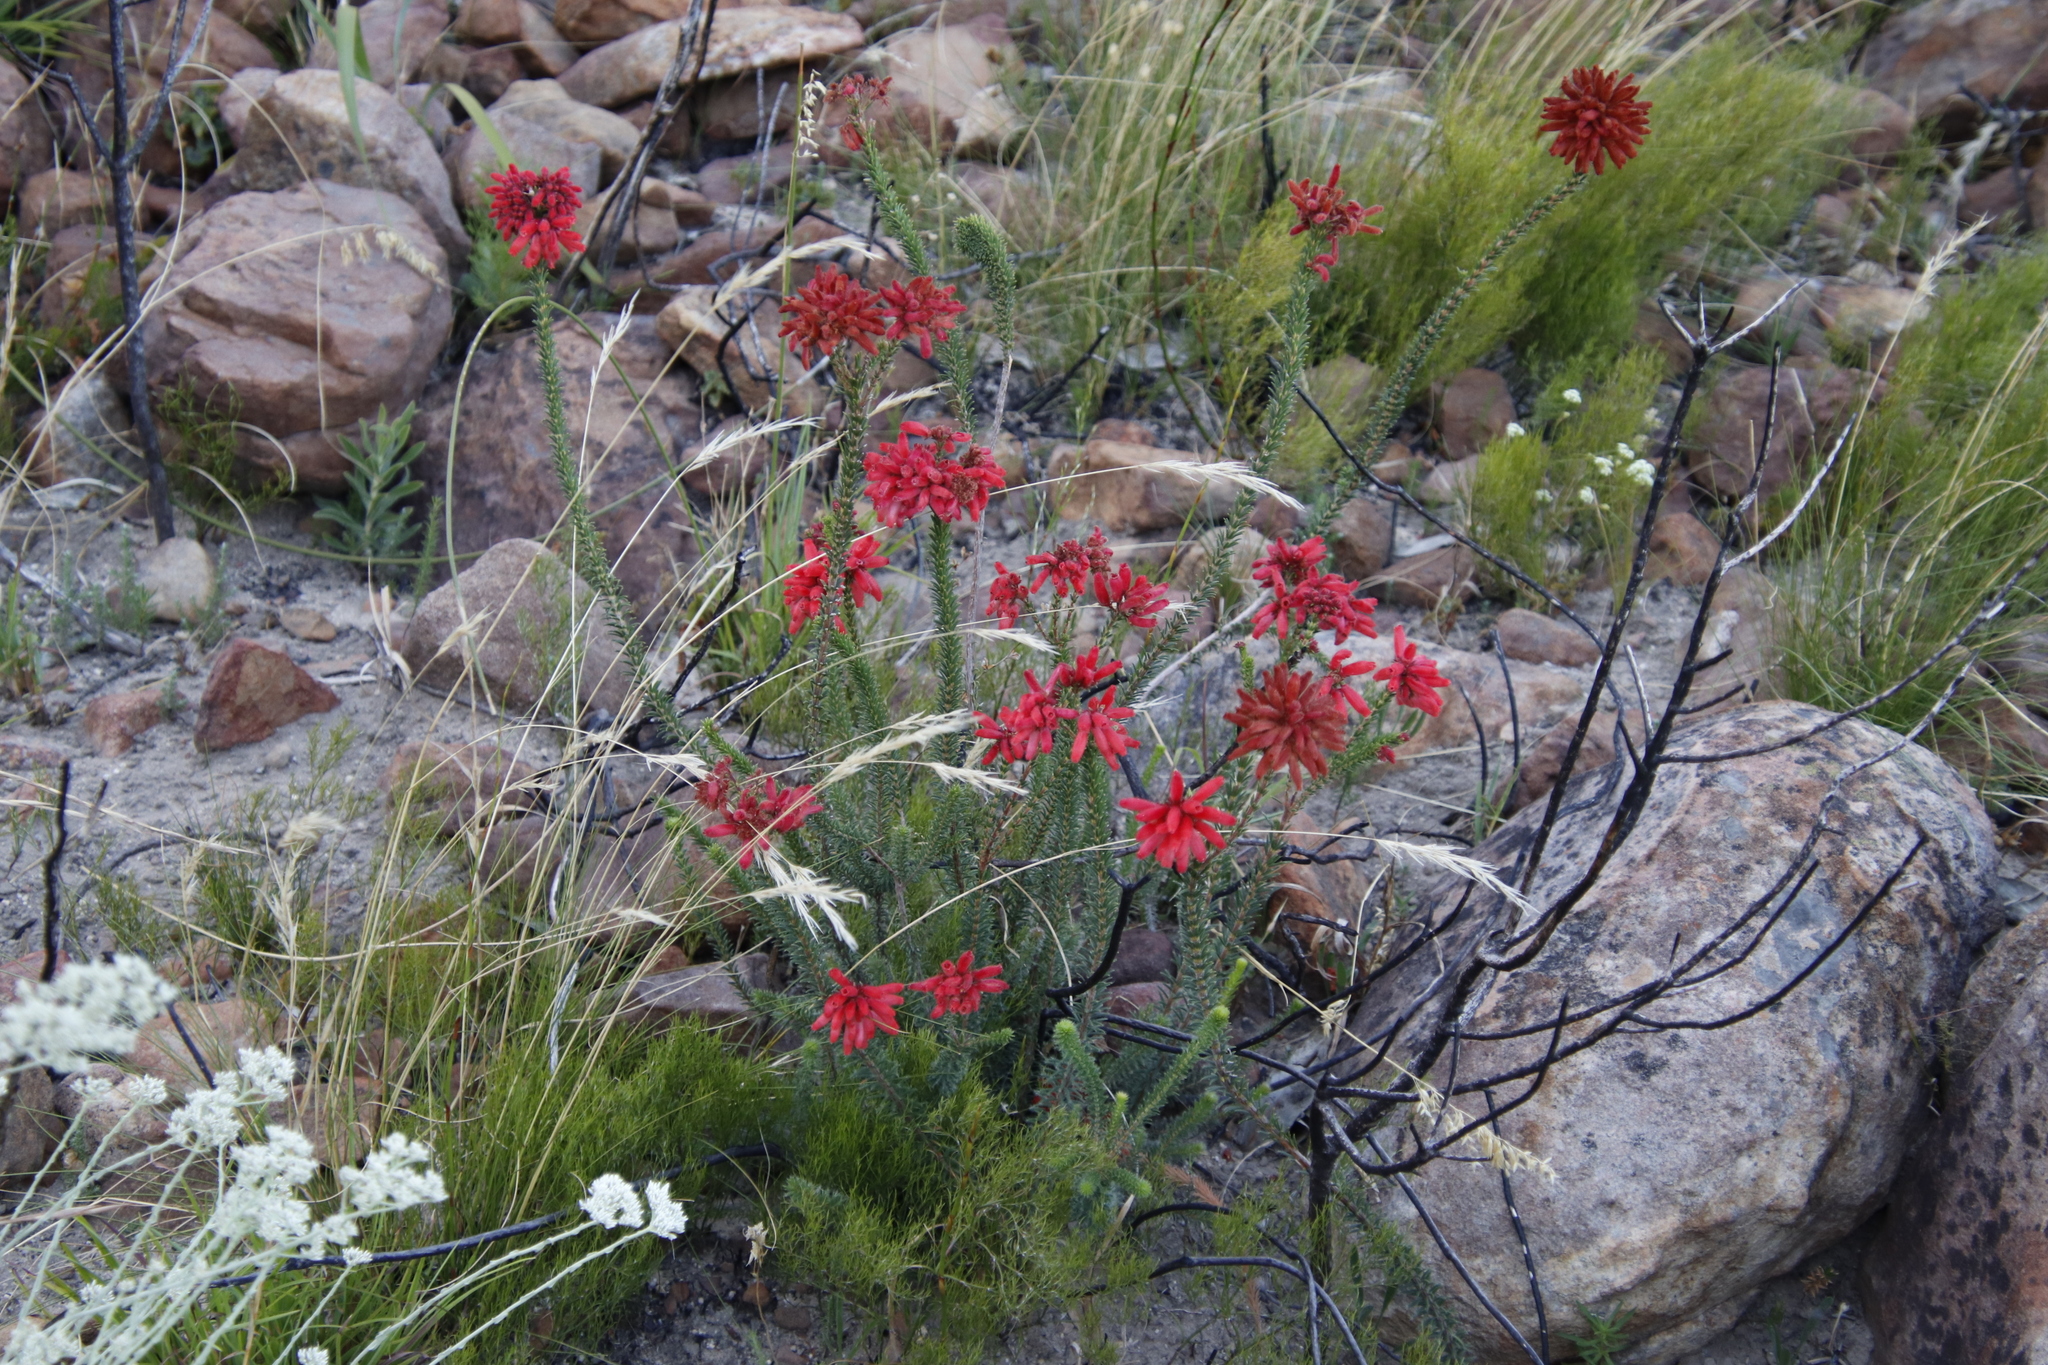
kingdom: Plantae
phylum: Tracheophyta
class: Magnoliopsida
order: Ericales
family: Ericaceae
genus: Erica
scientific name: Erica cerinthoides
